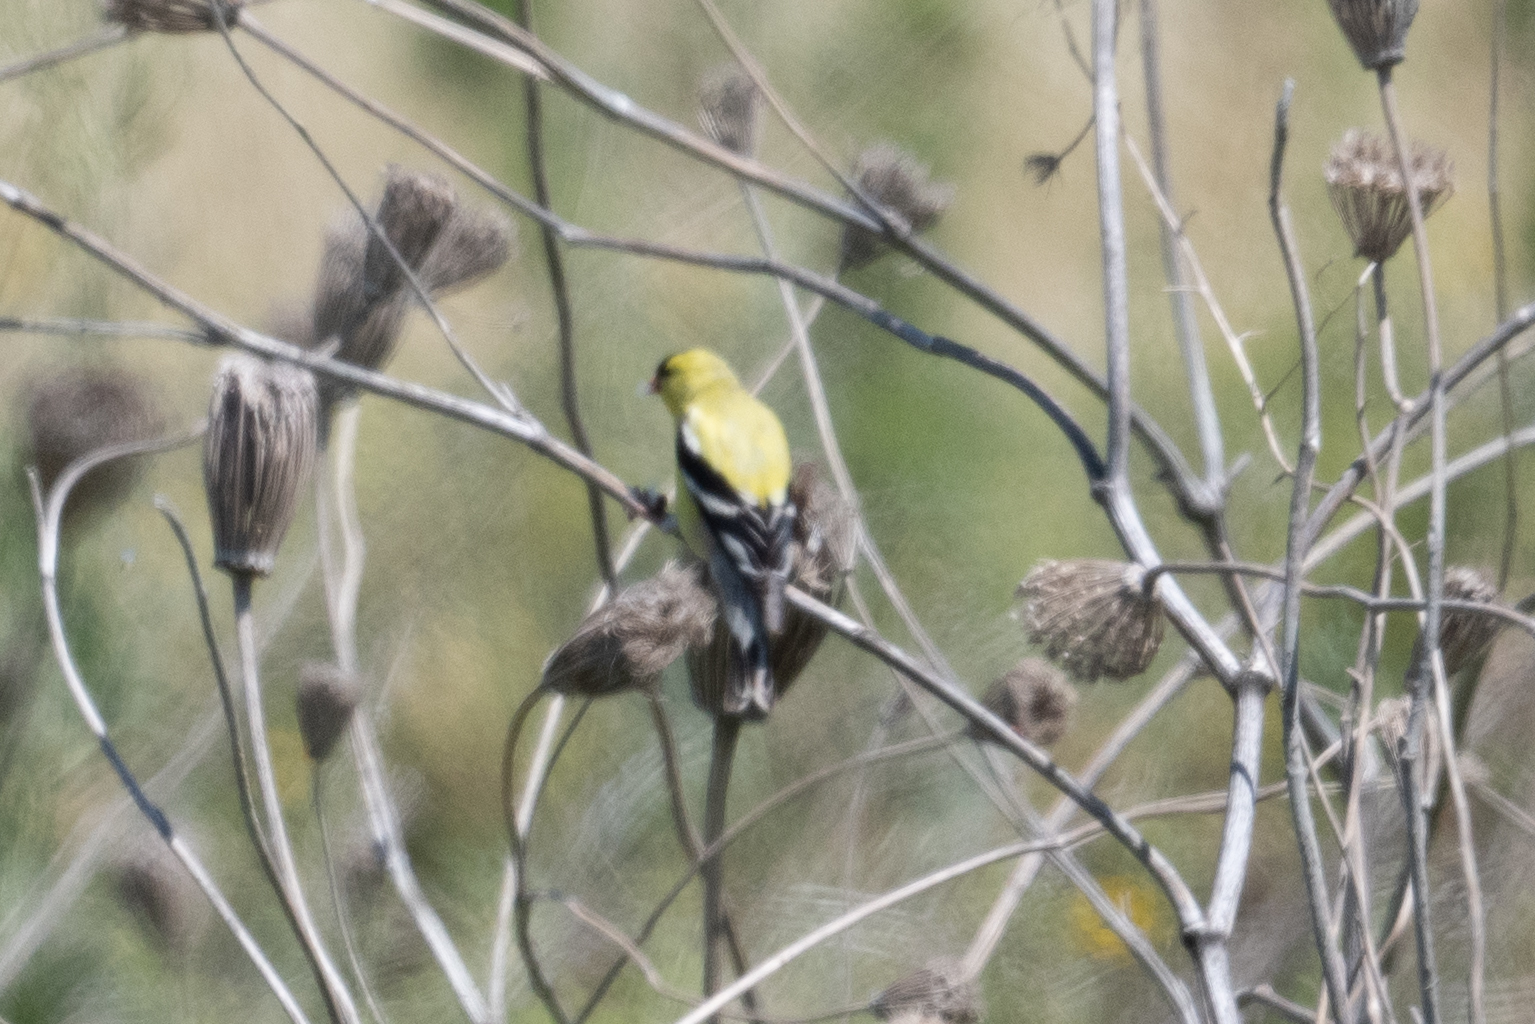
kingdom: Animalia
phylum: Chordata
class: Aves
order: Passeriformes
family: Fringillidae
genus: Spinus
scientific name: Spinus tristis
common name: American goldfinch
